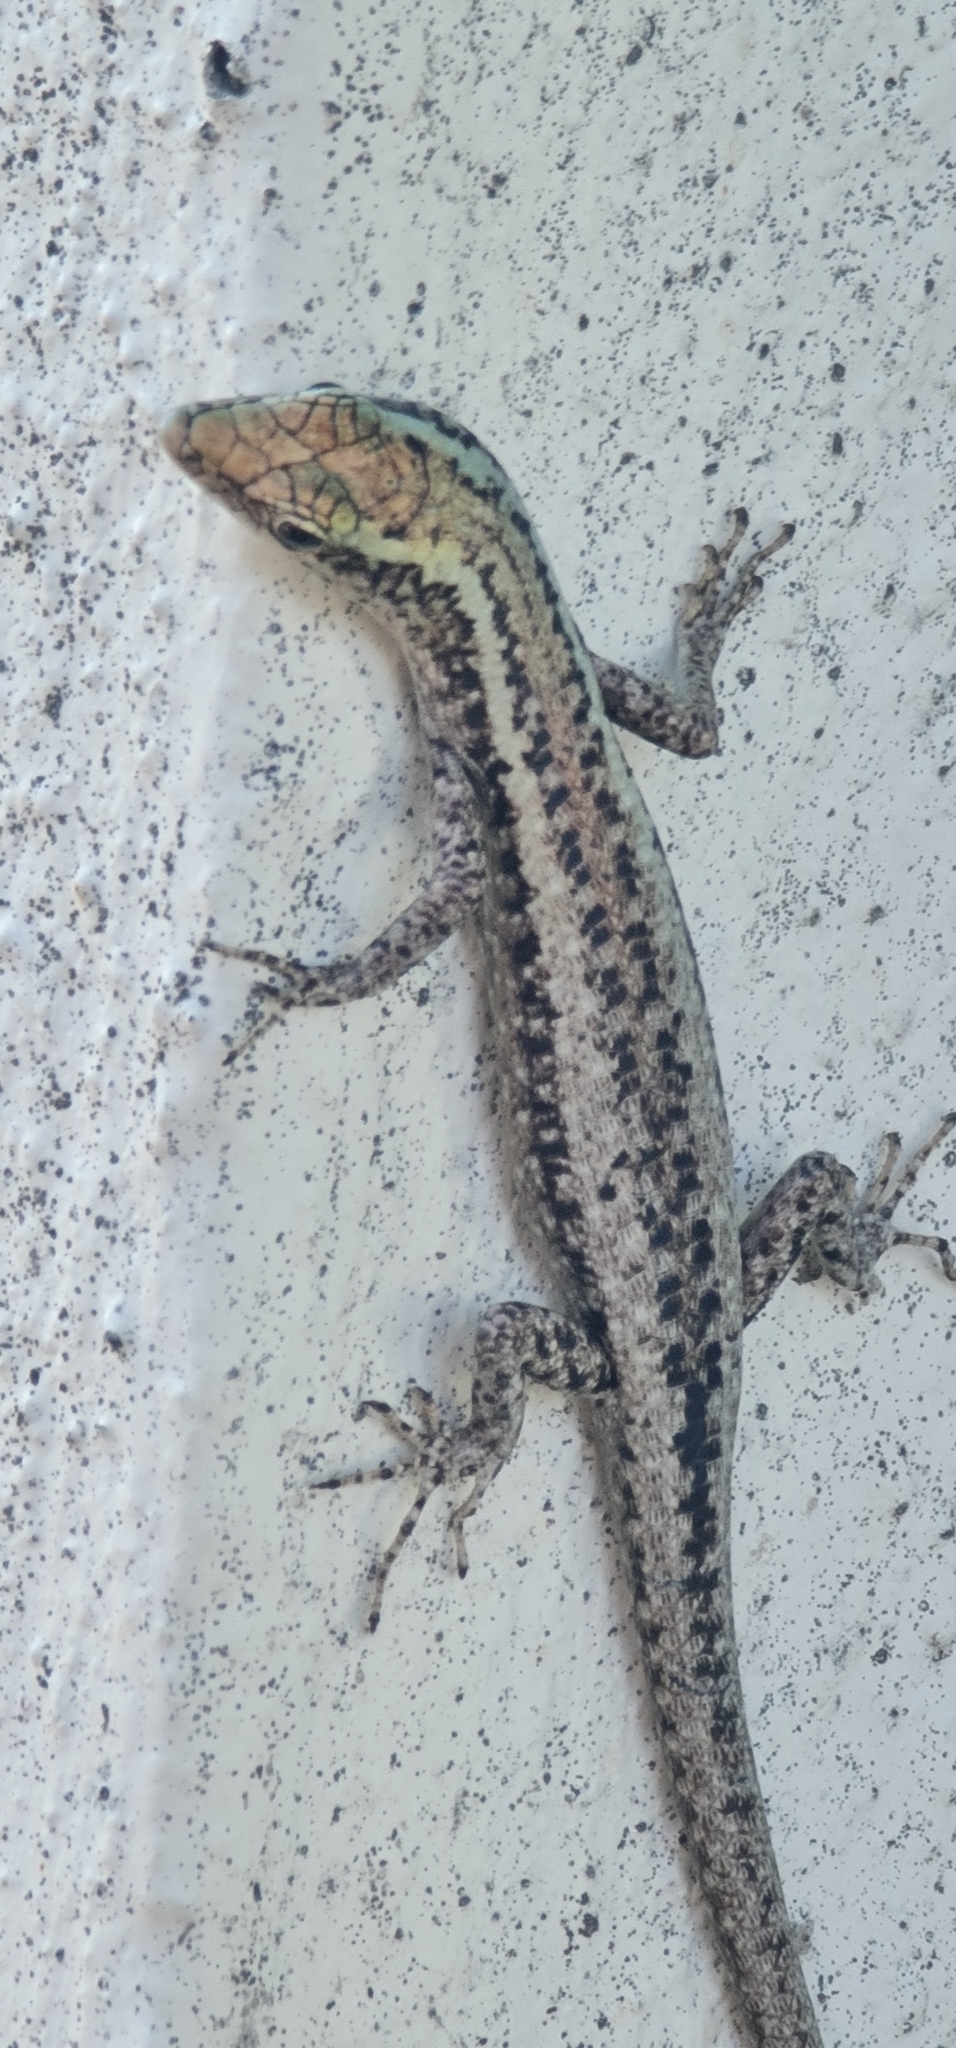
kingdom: Animalia
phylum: Chordata
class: Squamata
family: Scincidae
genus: Cryptoblepharus
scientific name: Cryptoblepharus metallicus
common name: Metallic snake-eyed skink
